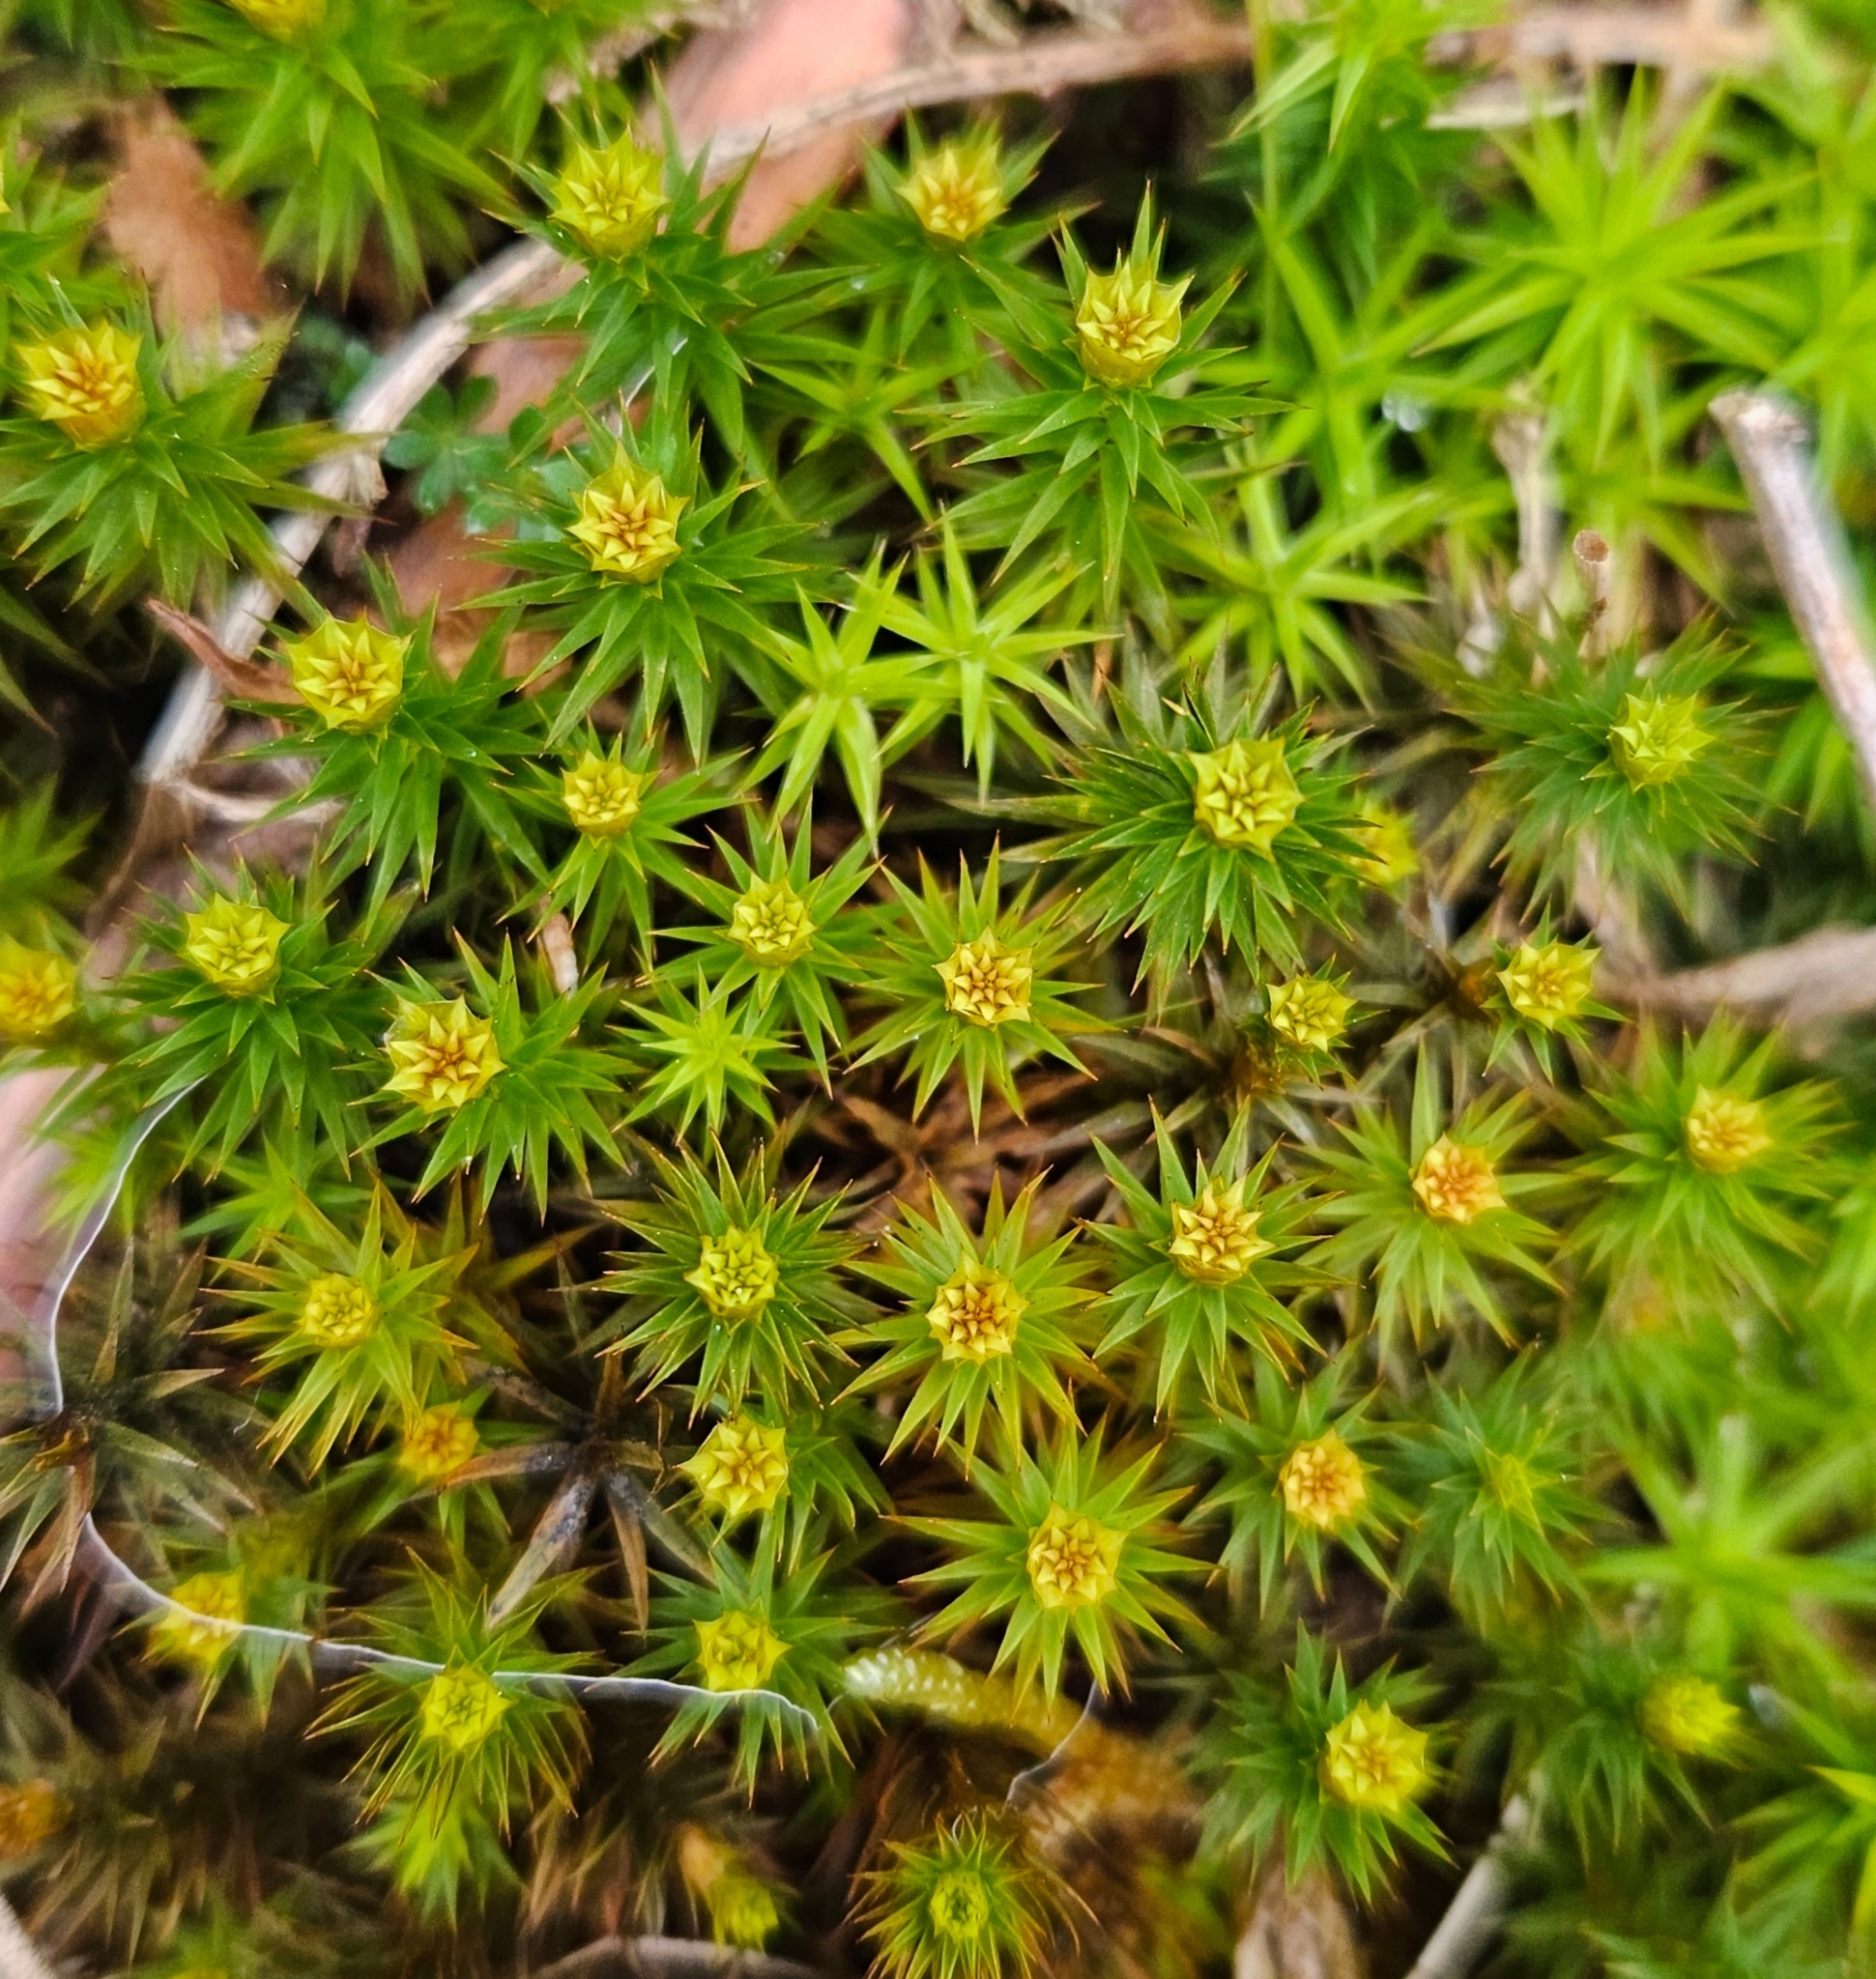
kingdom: Plantae
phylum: Bryophyta
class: Polytrichopsida
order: Polytrichales
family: Polytrichaceae
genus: Polytrichum
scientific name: Polytrichum juniperinum
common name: Juniper haircap moss
